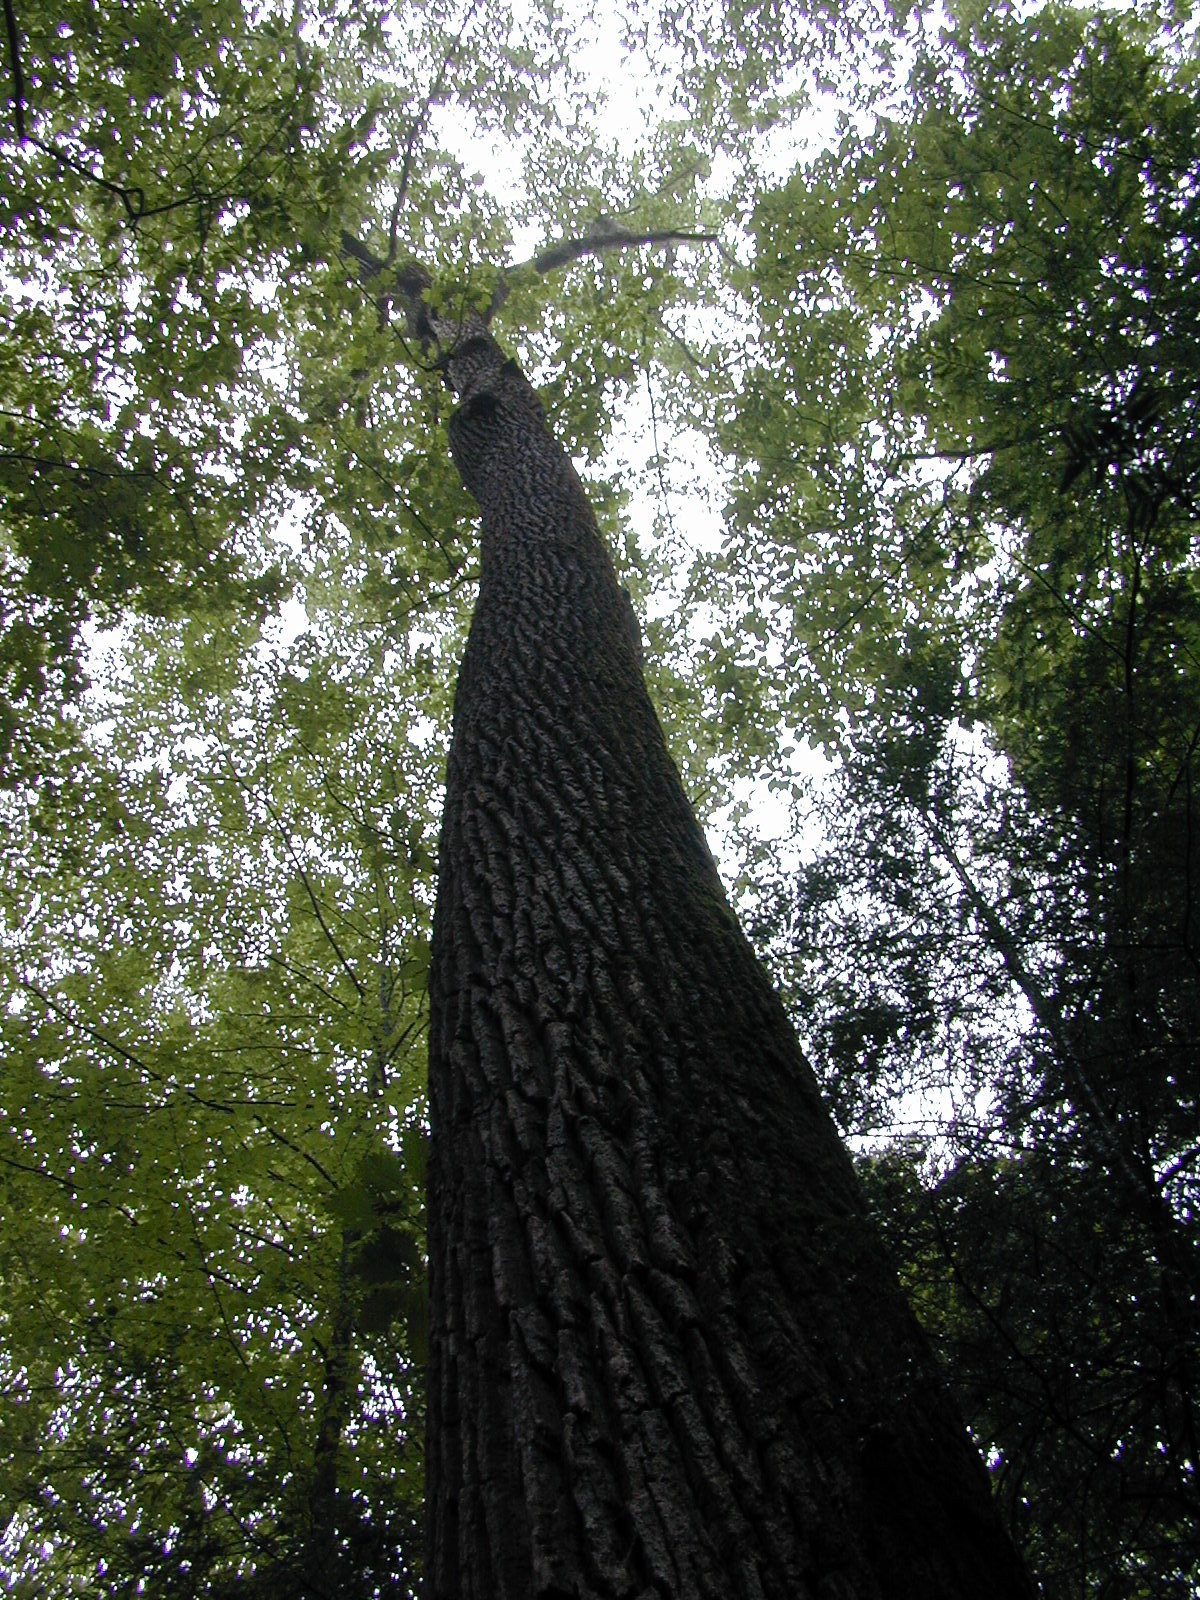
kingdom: Plantae
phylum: Tracheophyta
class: Magnoliopsida
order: Magnoliales
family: Magnoliaceae
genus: Liriodendron
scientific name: Liriodendron tulipifera
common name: Tulip tree
